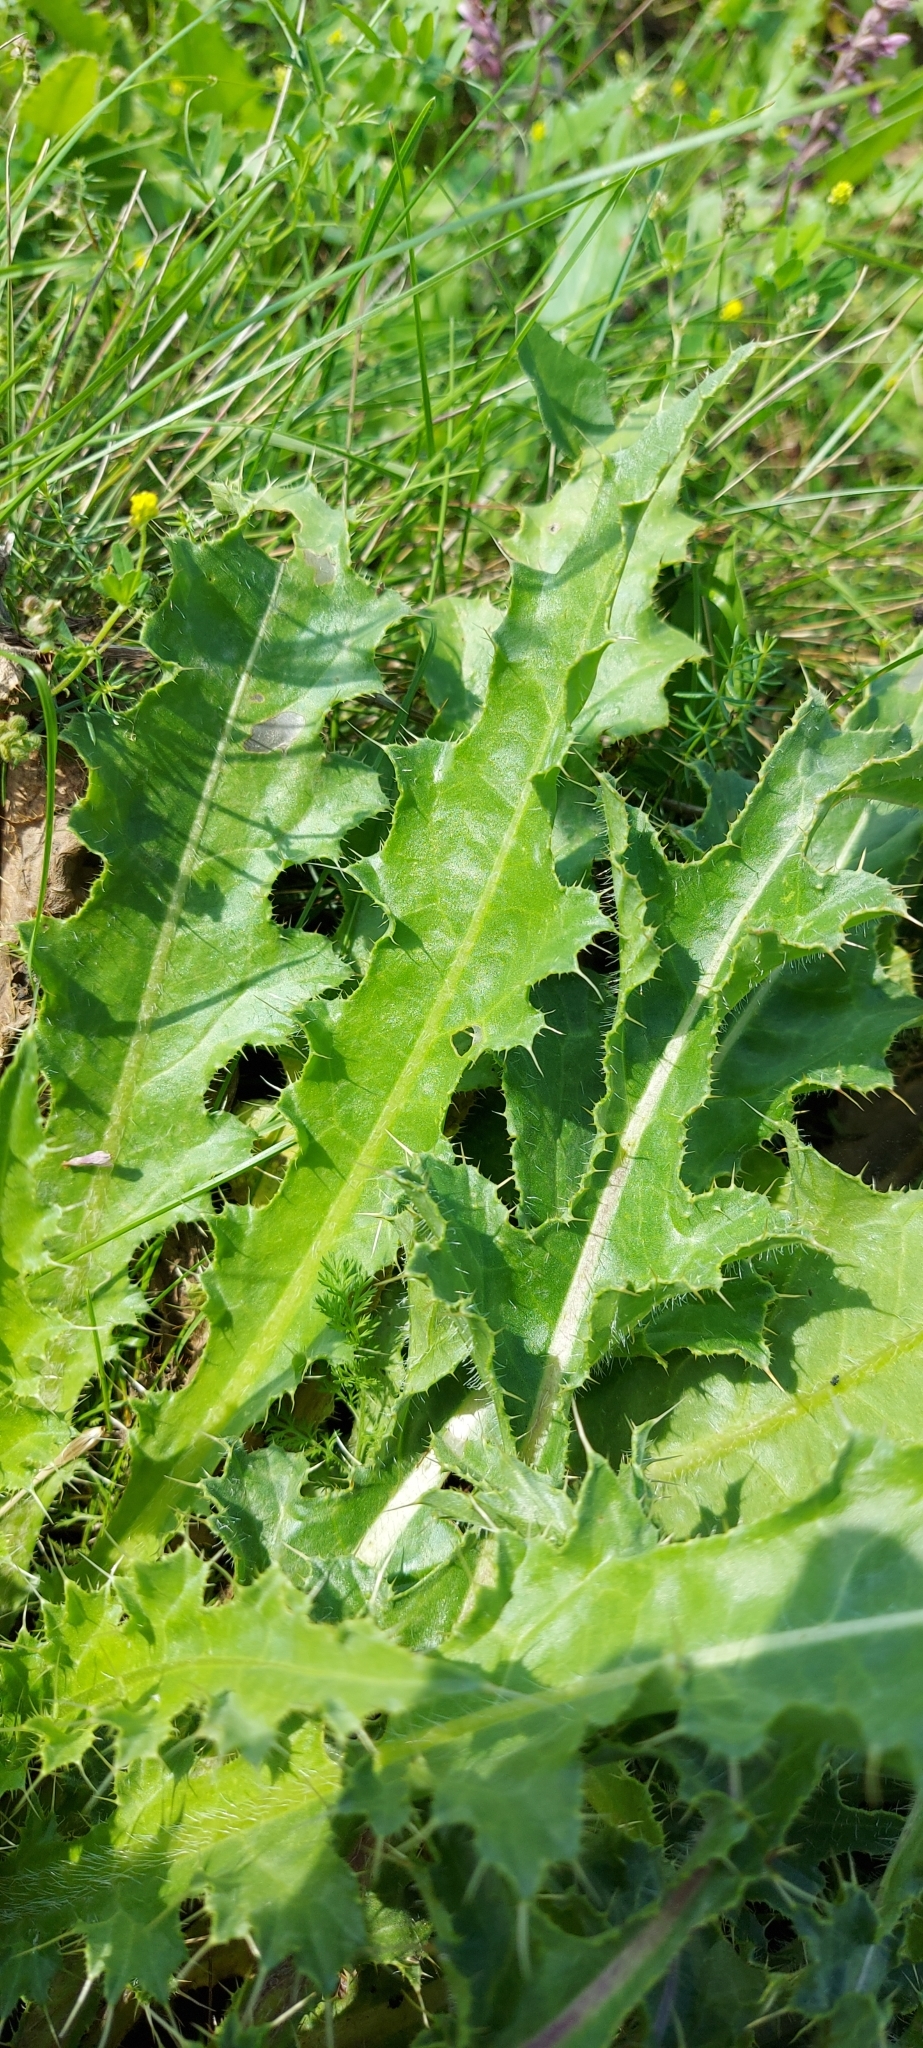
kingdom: Plantae
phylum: Tracheophyta
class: Magnoliopsida
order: Asterales
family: Asteraceae
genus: Cirsium
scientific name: Cirsium esculentum
